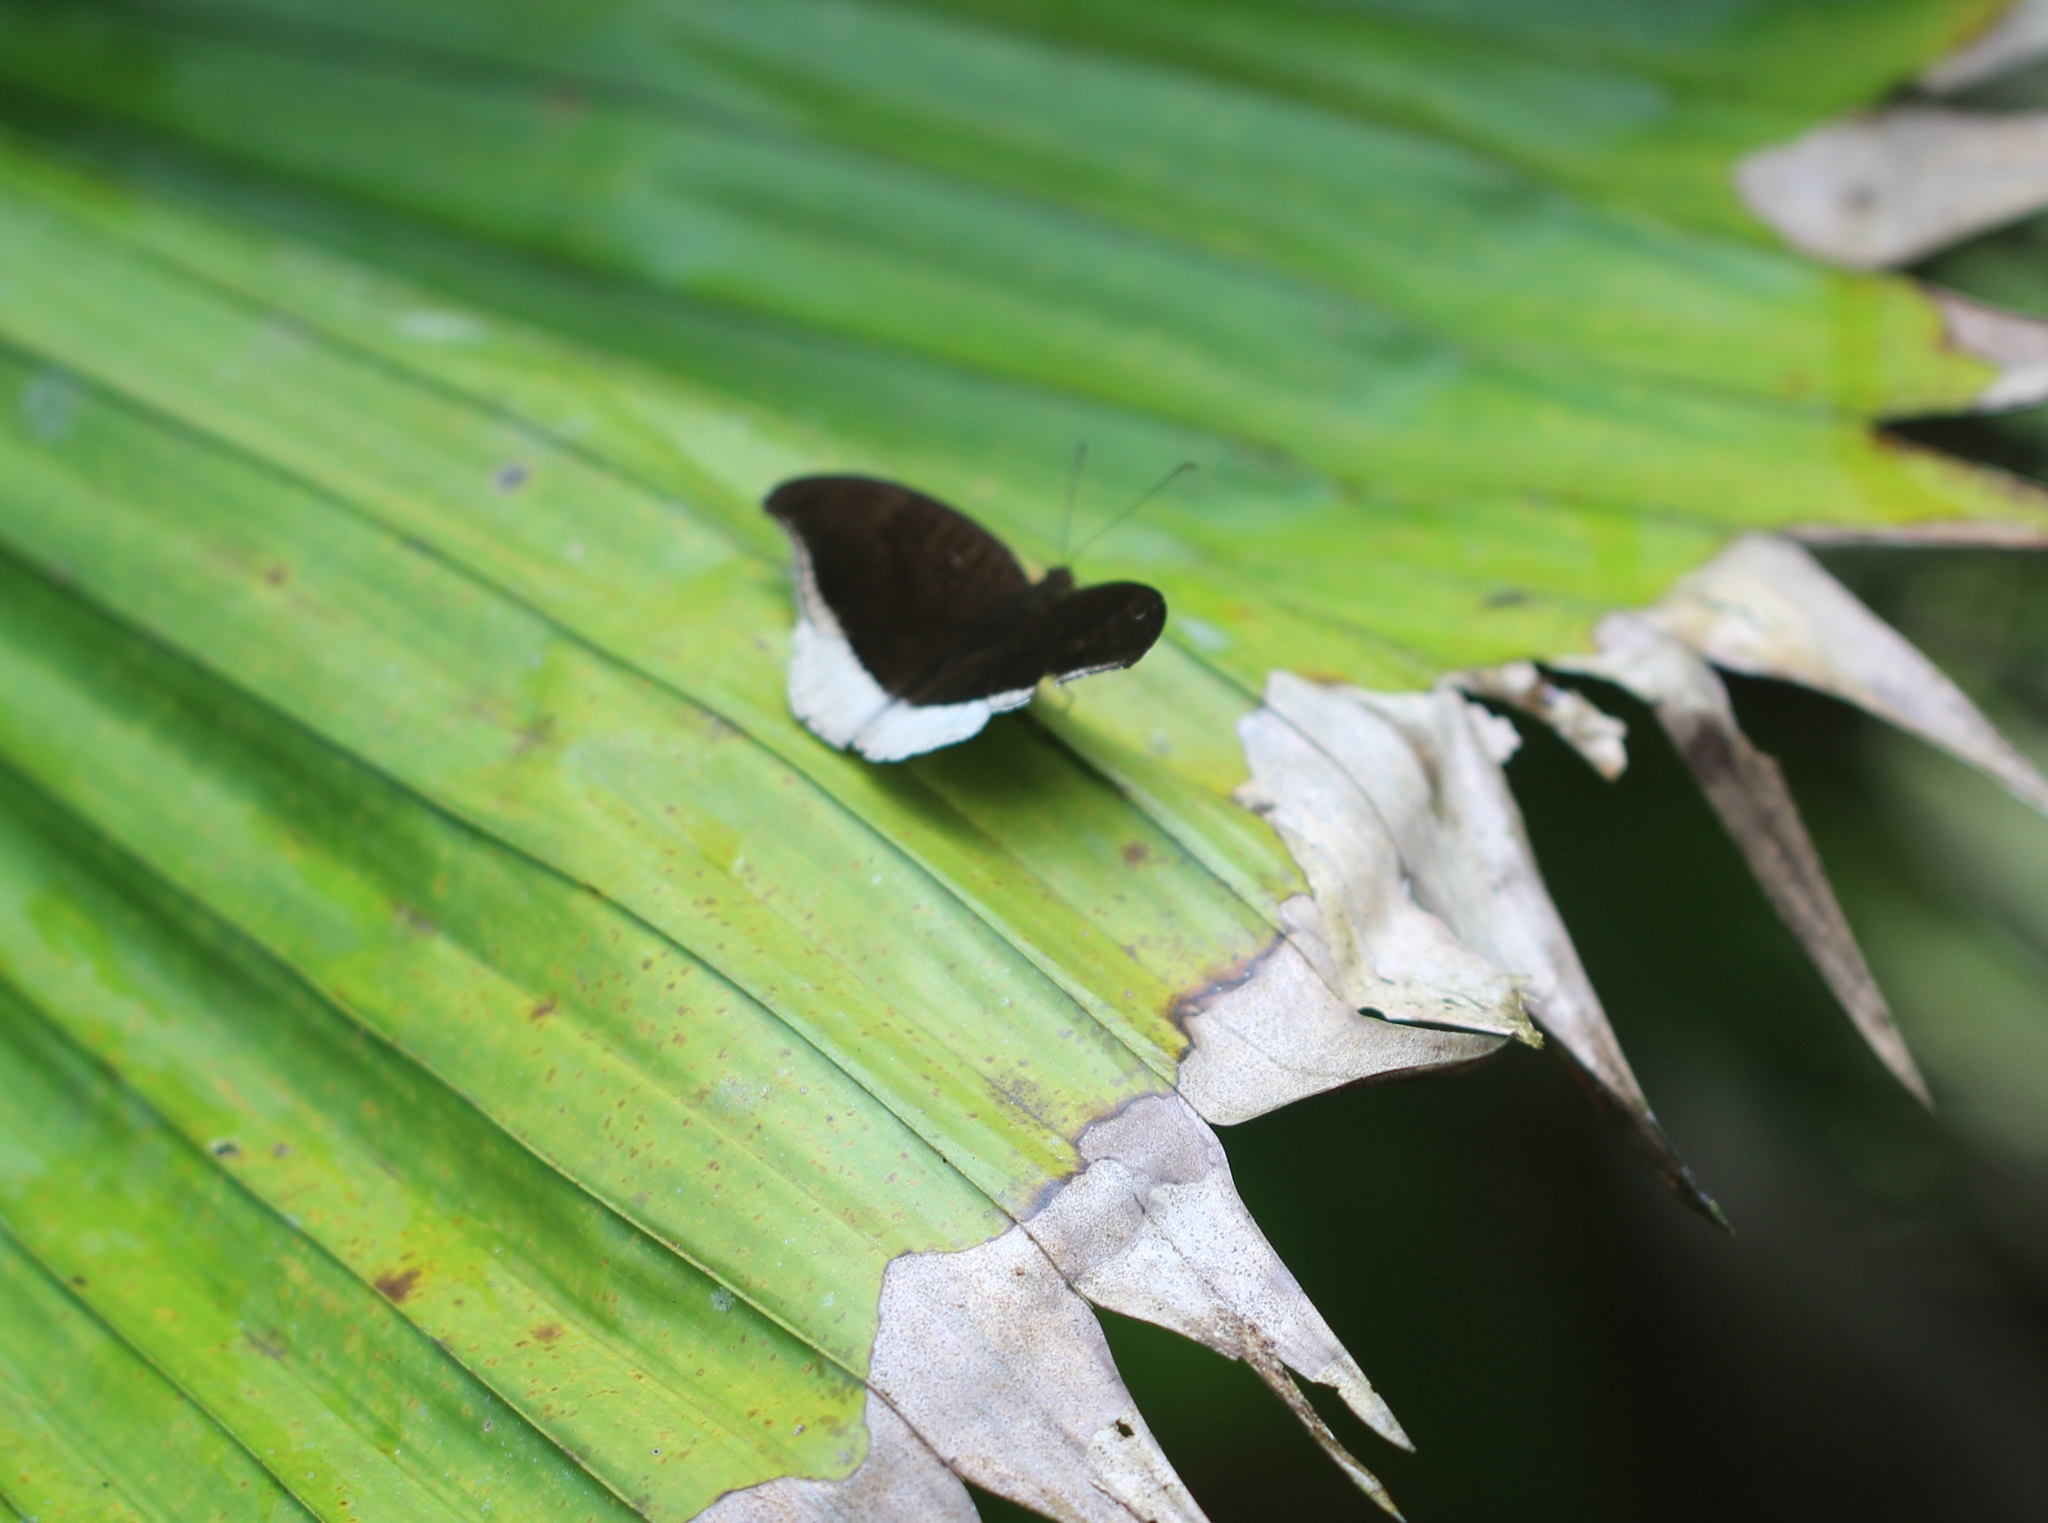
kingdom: Animalia
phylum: Arthropoda
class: Insecta
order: Lepidoptera
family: Nymphalidae
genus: Tanaecia
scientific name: Tanaecia lepidea
